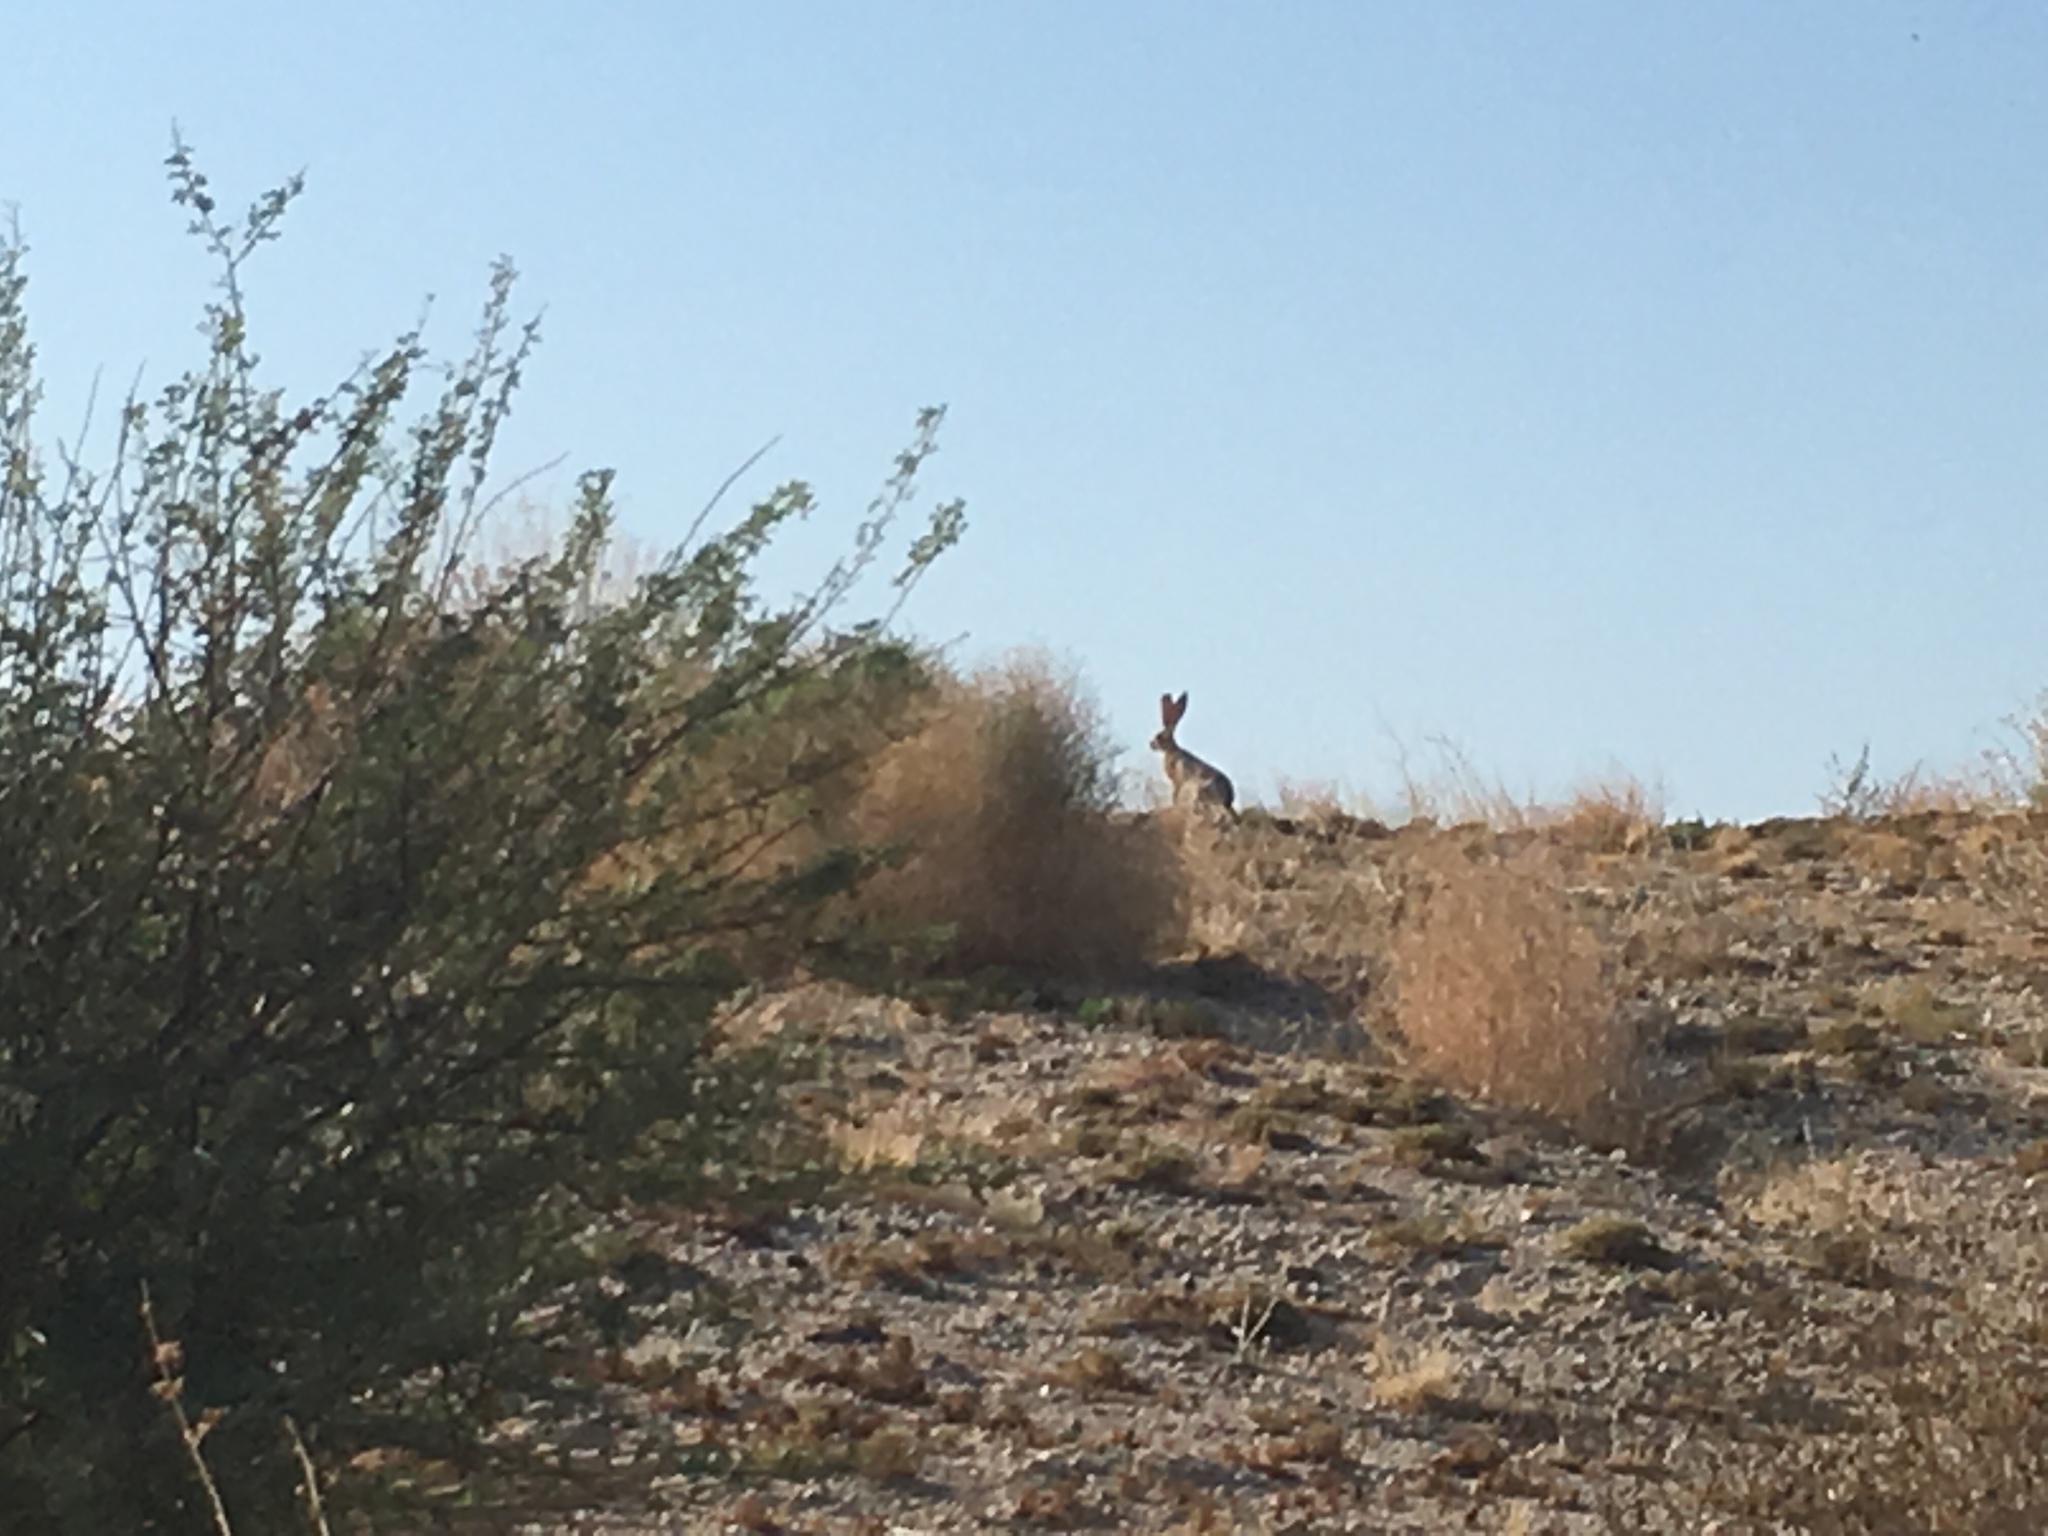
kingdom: Animalia
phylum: Chordata
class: Mammalia
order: Lagomorpha
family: Leporidae
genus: Lepus
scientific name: Lepus californicus
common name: Black-tailed jackrabbit
